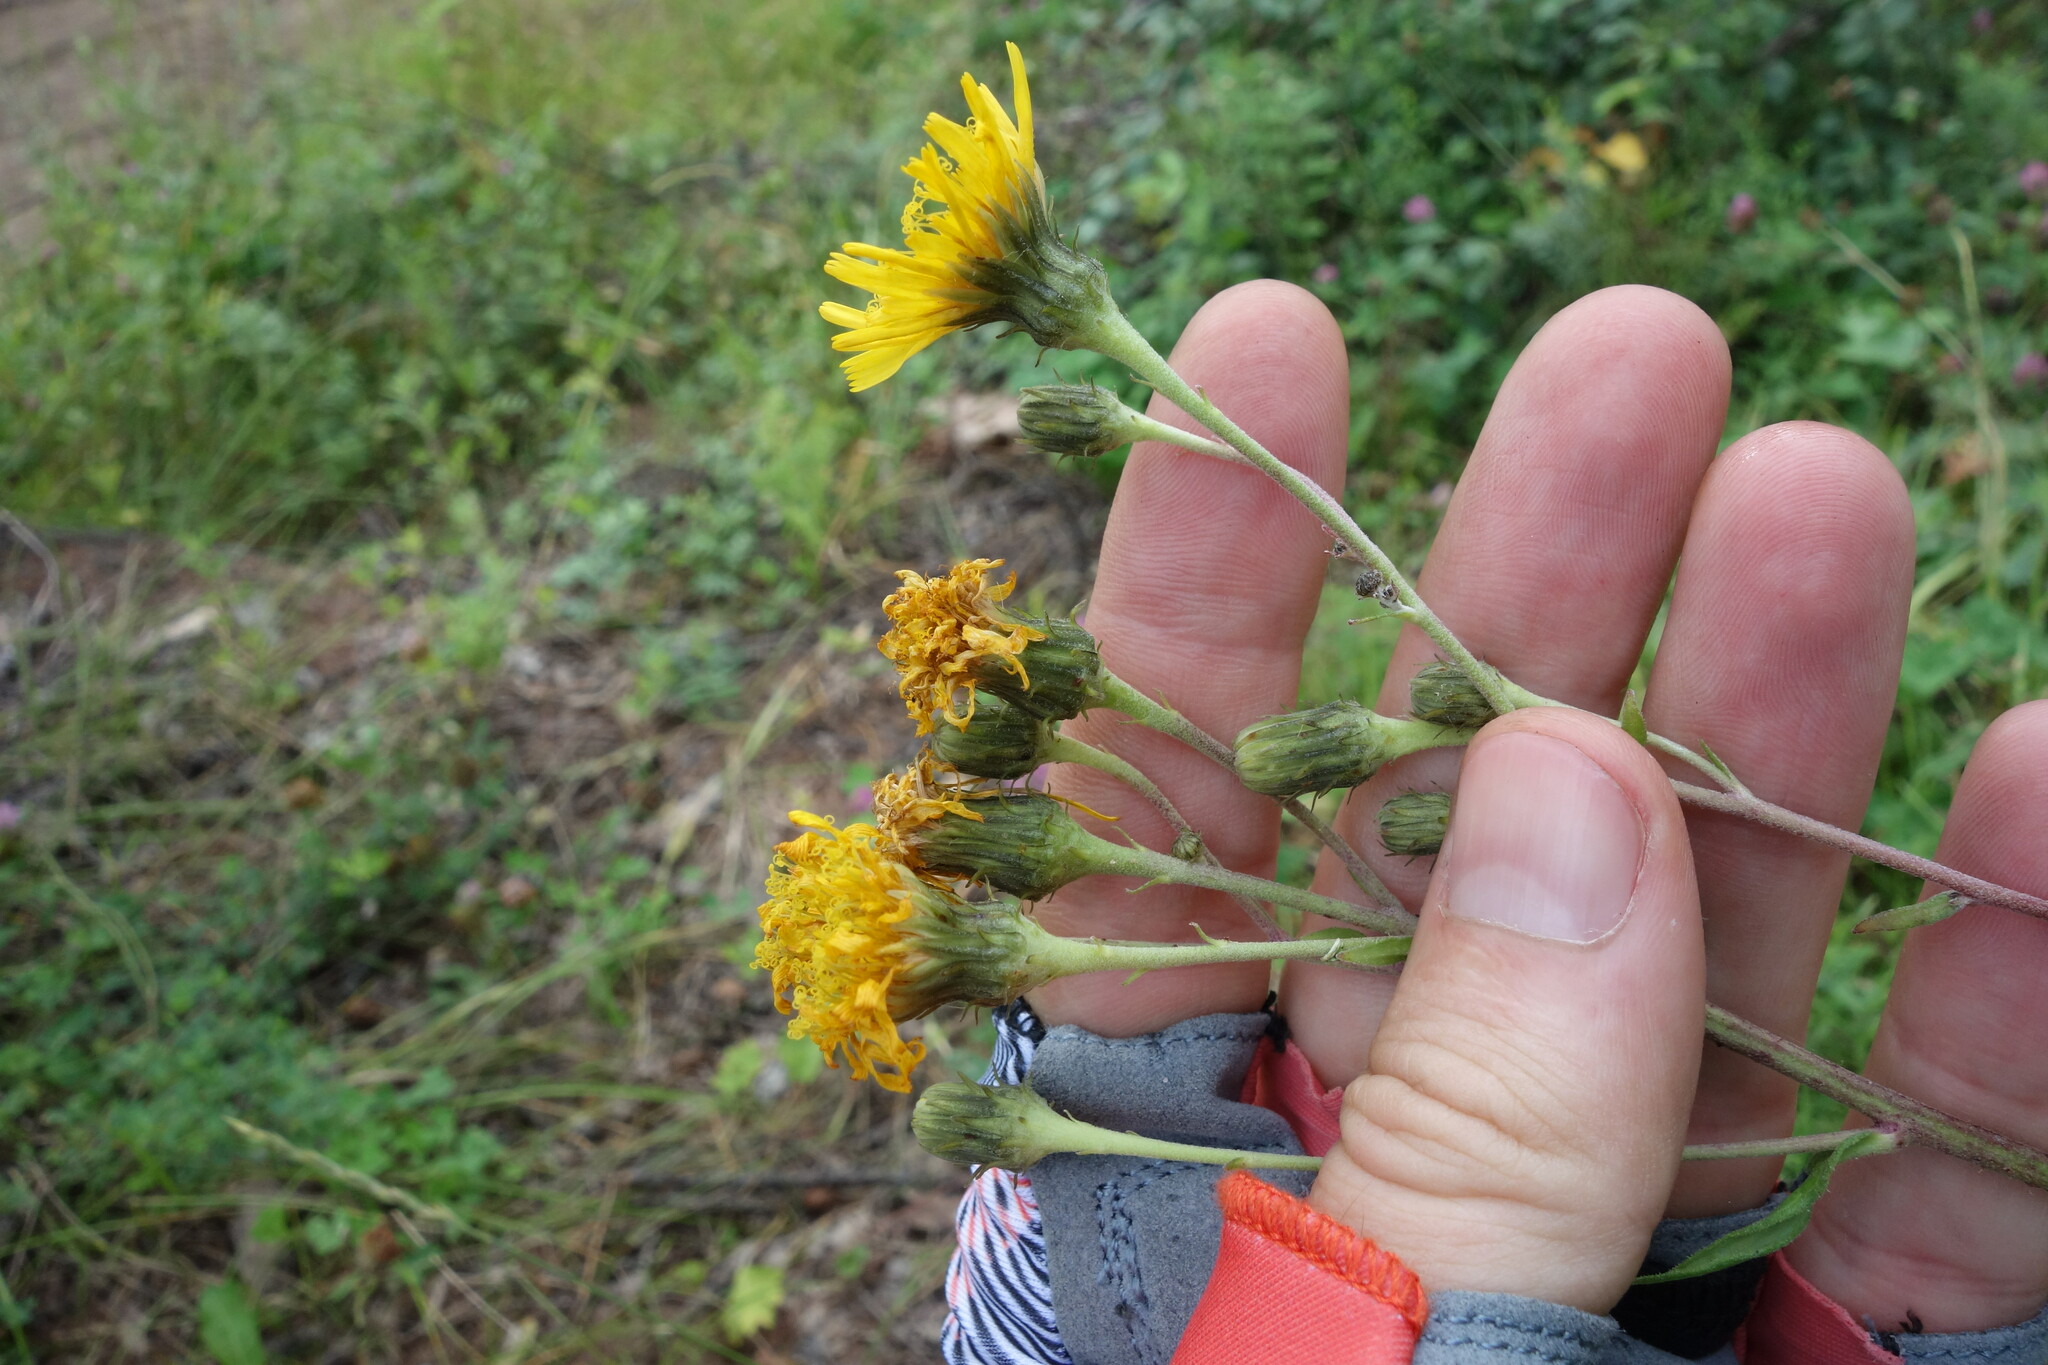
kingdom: Plantae
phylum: Tracheophyta
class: Magnoliopsida
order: Asterales
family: Asteraceae
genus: Hieracium
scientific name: Hieracium umbellatum
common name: Northern hawkweed
